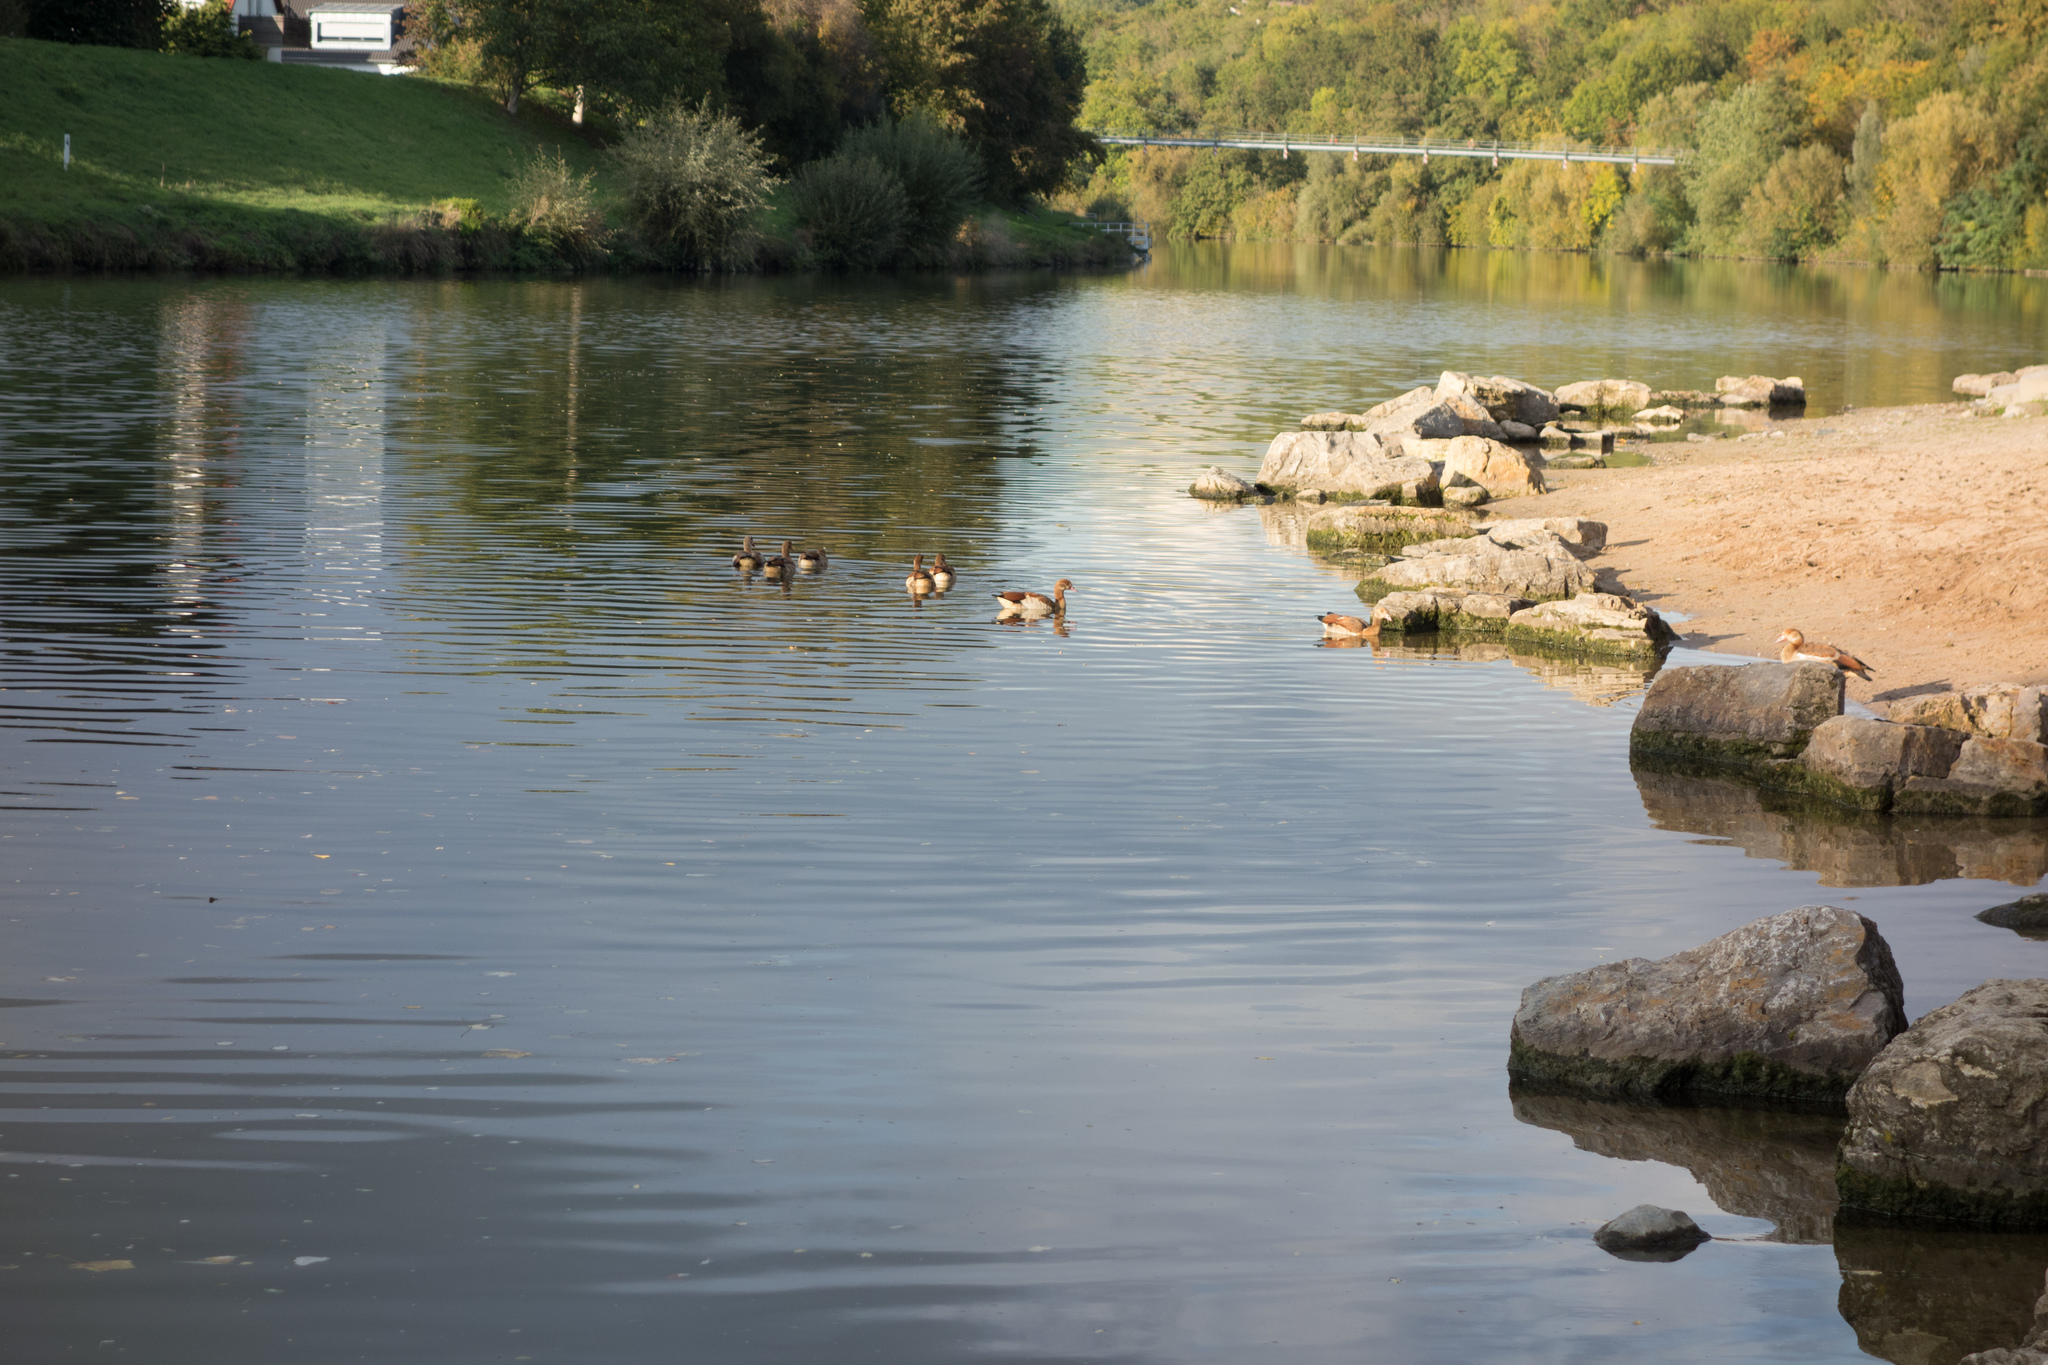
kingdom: Animalia
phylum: Chordata
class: Aves
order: Anseriformes
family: Anatidae
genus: Alopochen
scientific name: Alopochen aegyptiaca
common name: Egyptian goose
